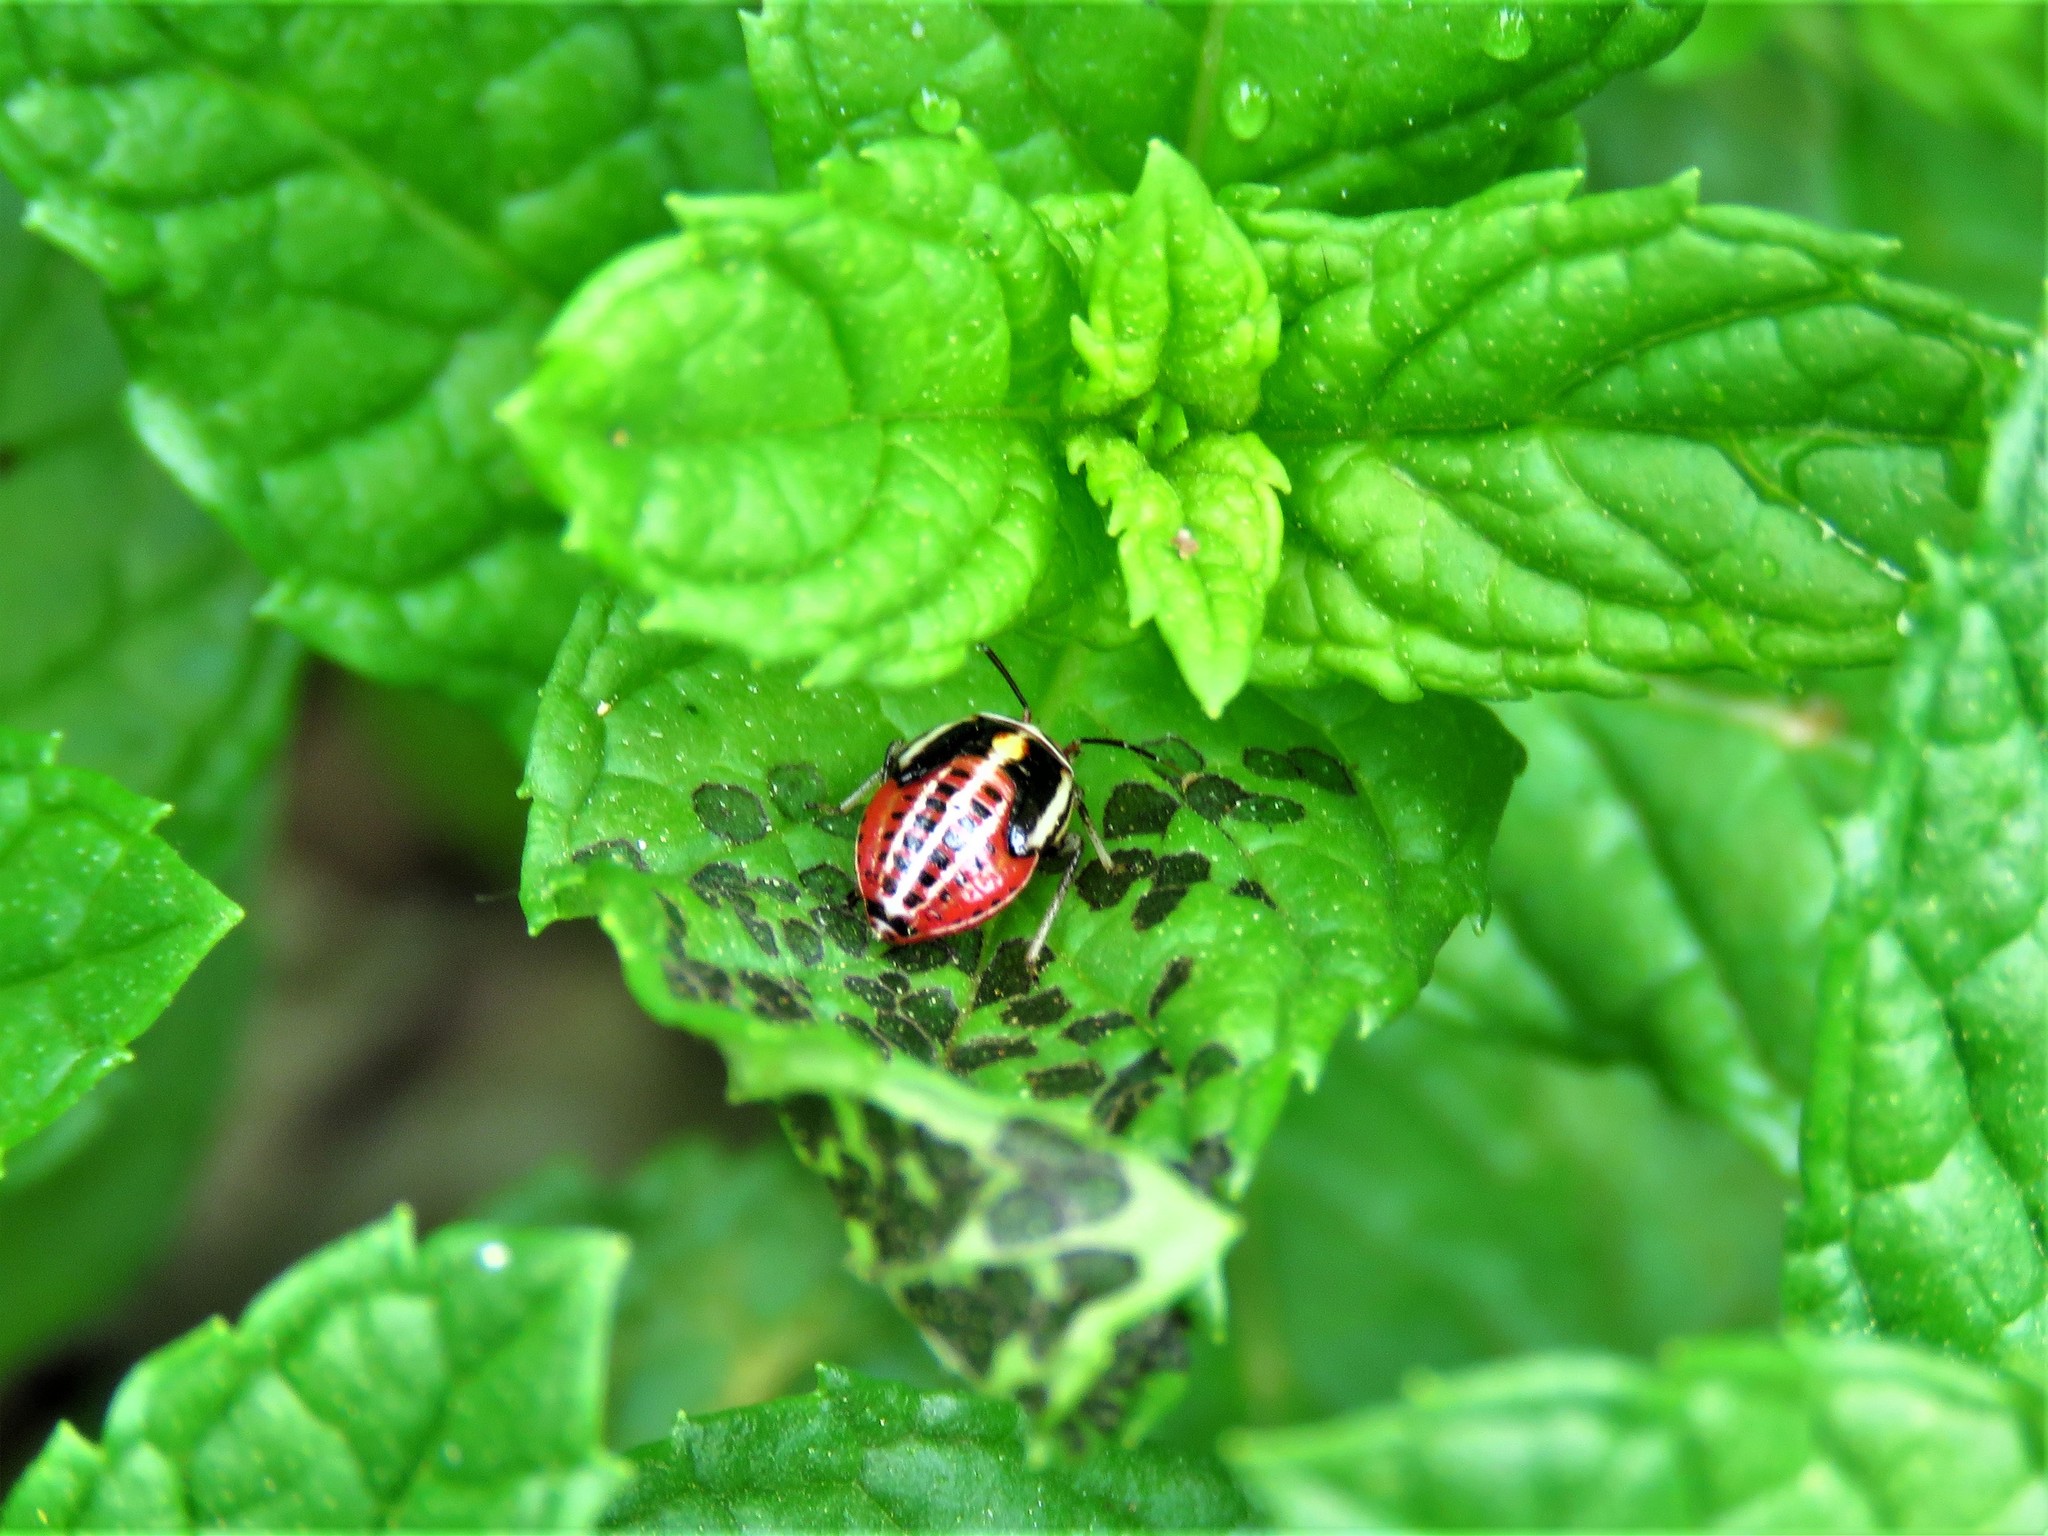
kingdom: Animalia
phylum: Arthropoda
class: Insecta
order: Hemiptera
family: Miridae
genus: Poecilocapsus
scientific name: Poecilocapsus lineatus
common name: Four-lined plant bug
